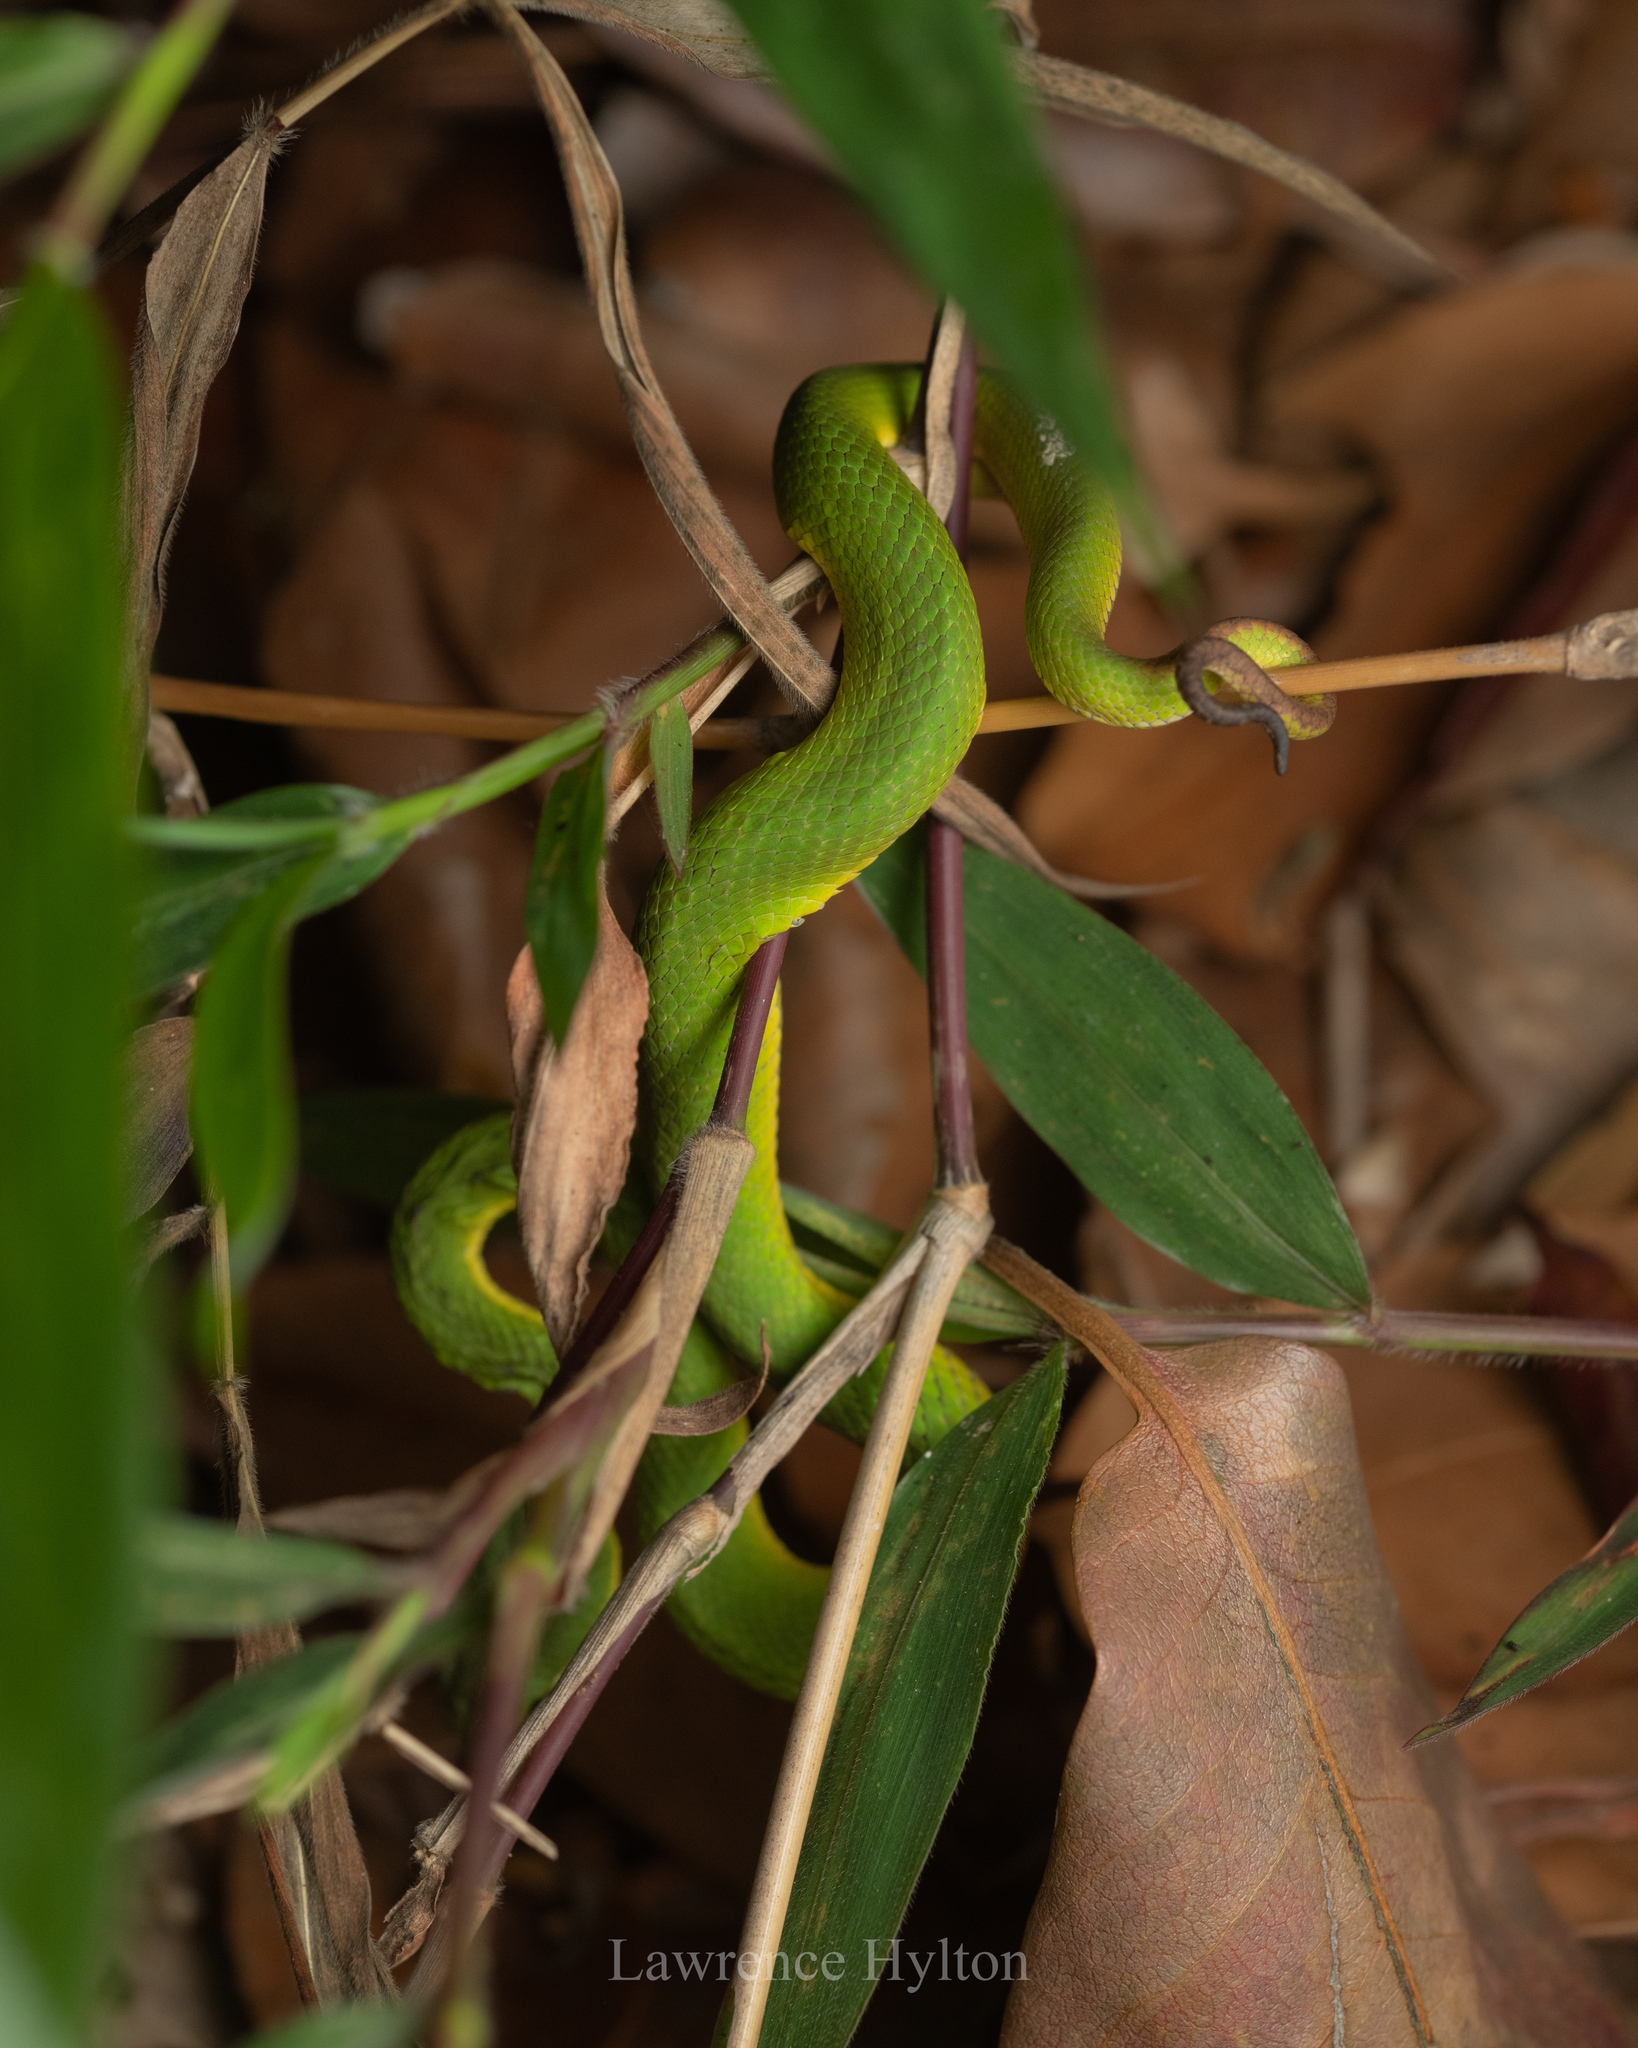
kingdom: Animalia
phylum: Chordata
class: Squamata
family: Viperidae
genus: Trimeresurus
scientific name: Trimeresurus albolabris
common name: White-lipped pitviper
